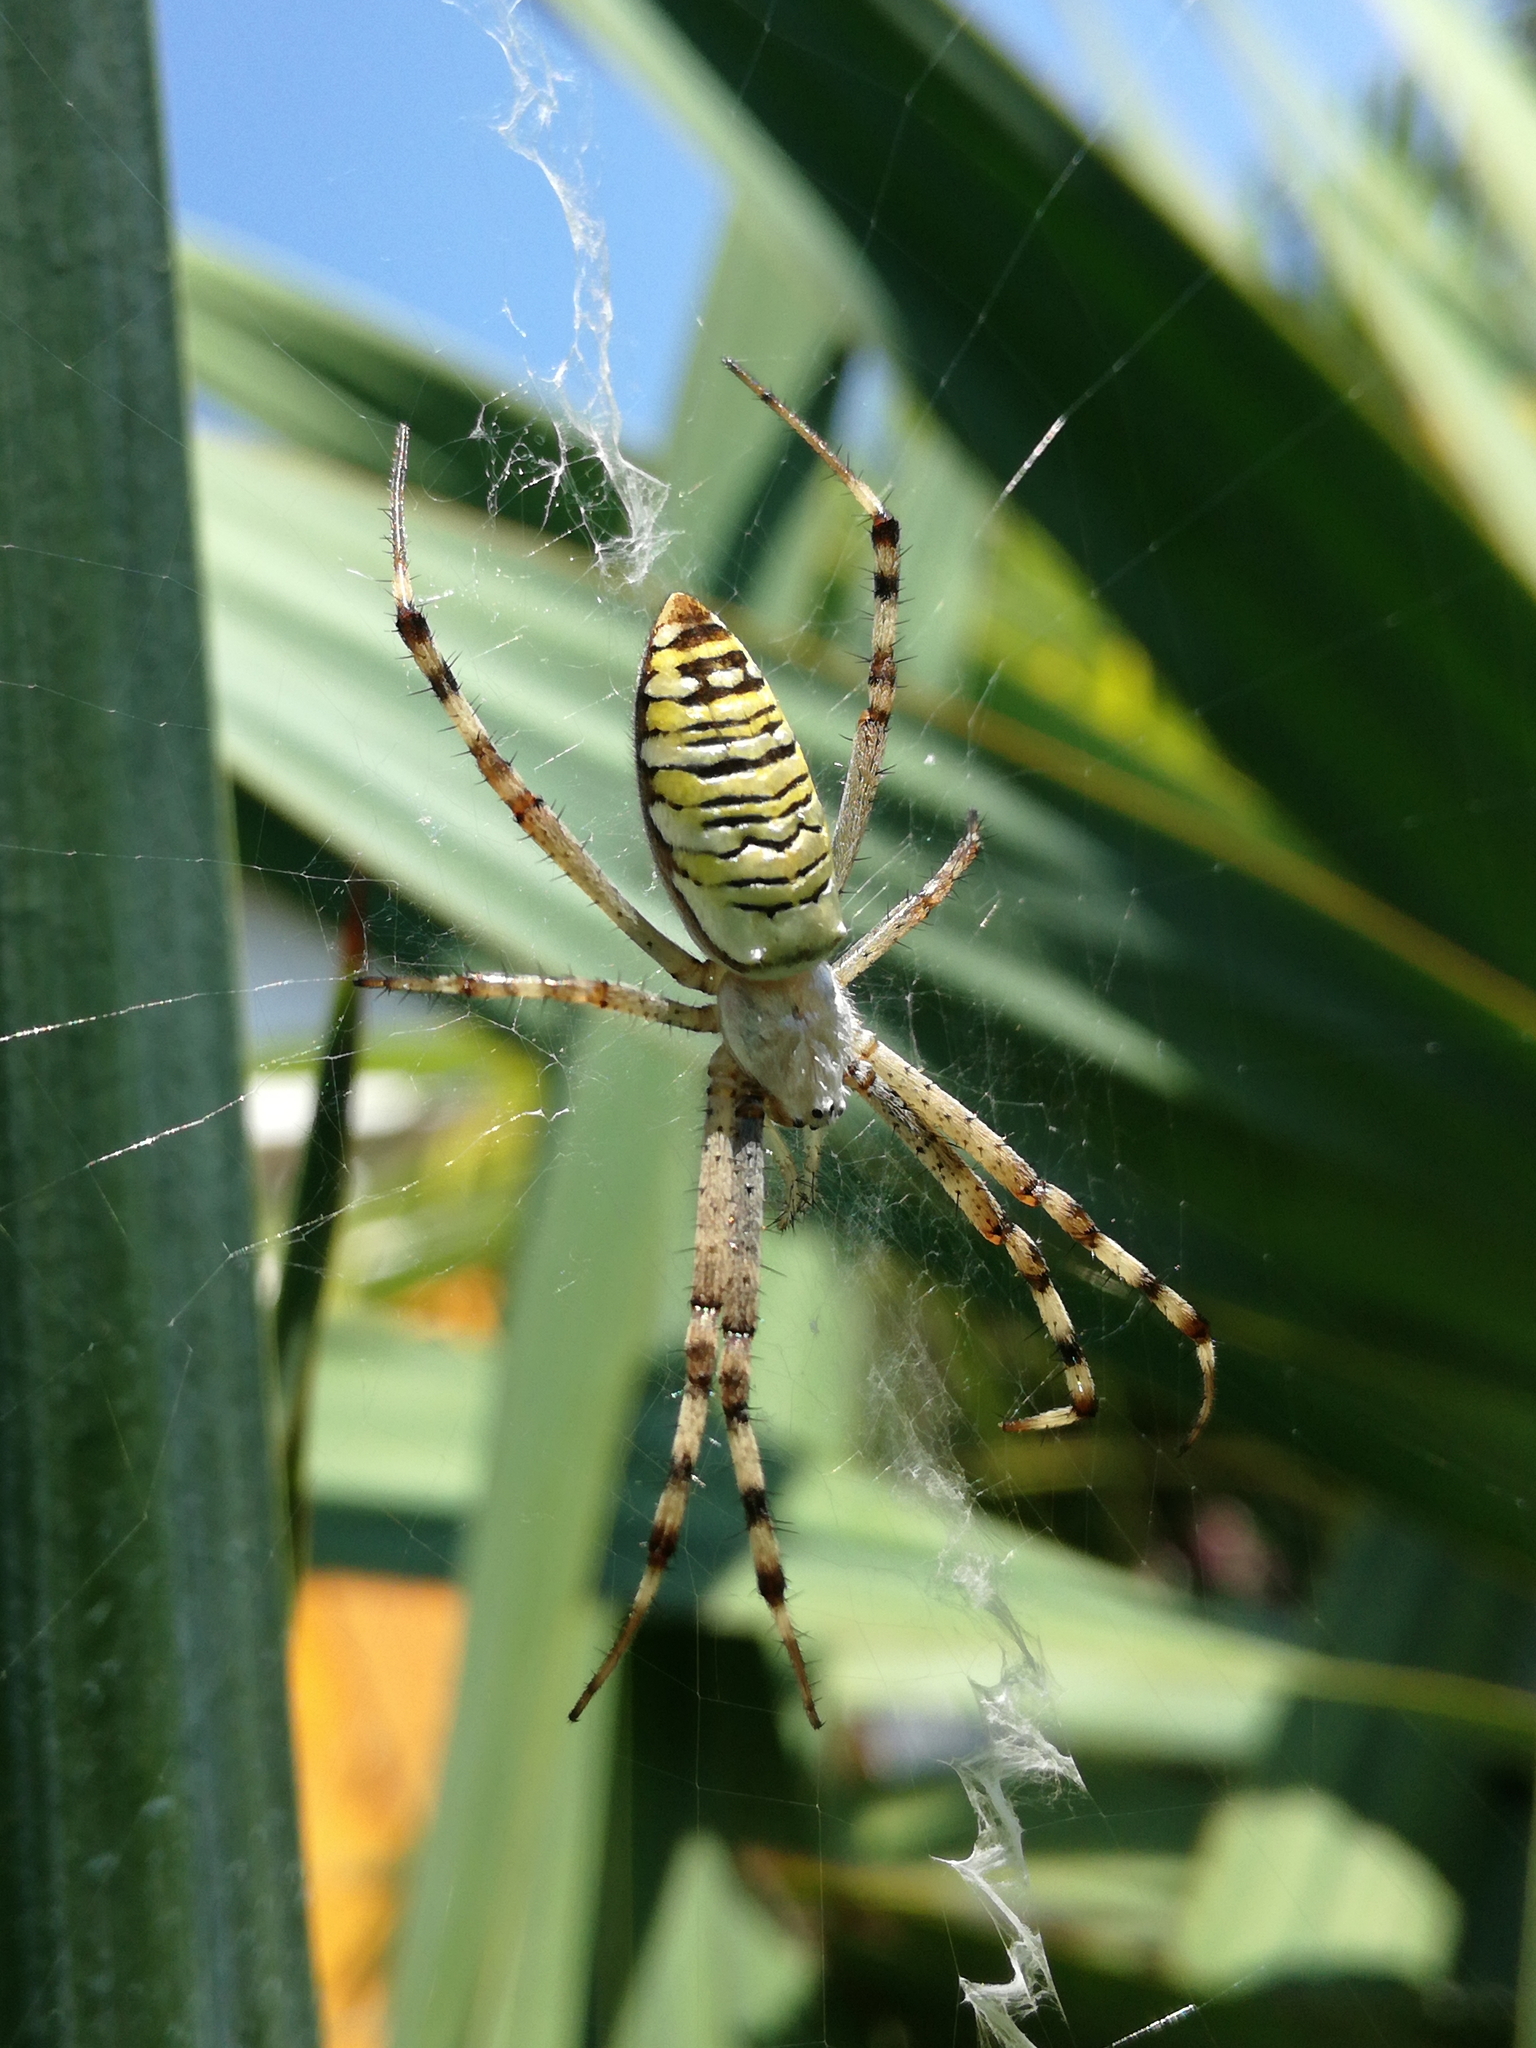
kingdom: Animalia
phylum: Arthropoda
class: Arachnida
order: Araneae
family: Araneidae
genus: Argiope
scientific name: Argiope bruennichi
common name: Wasp spider
